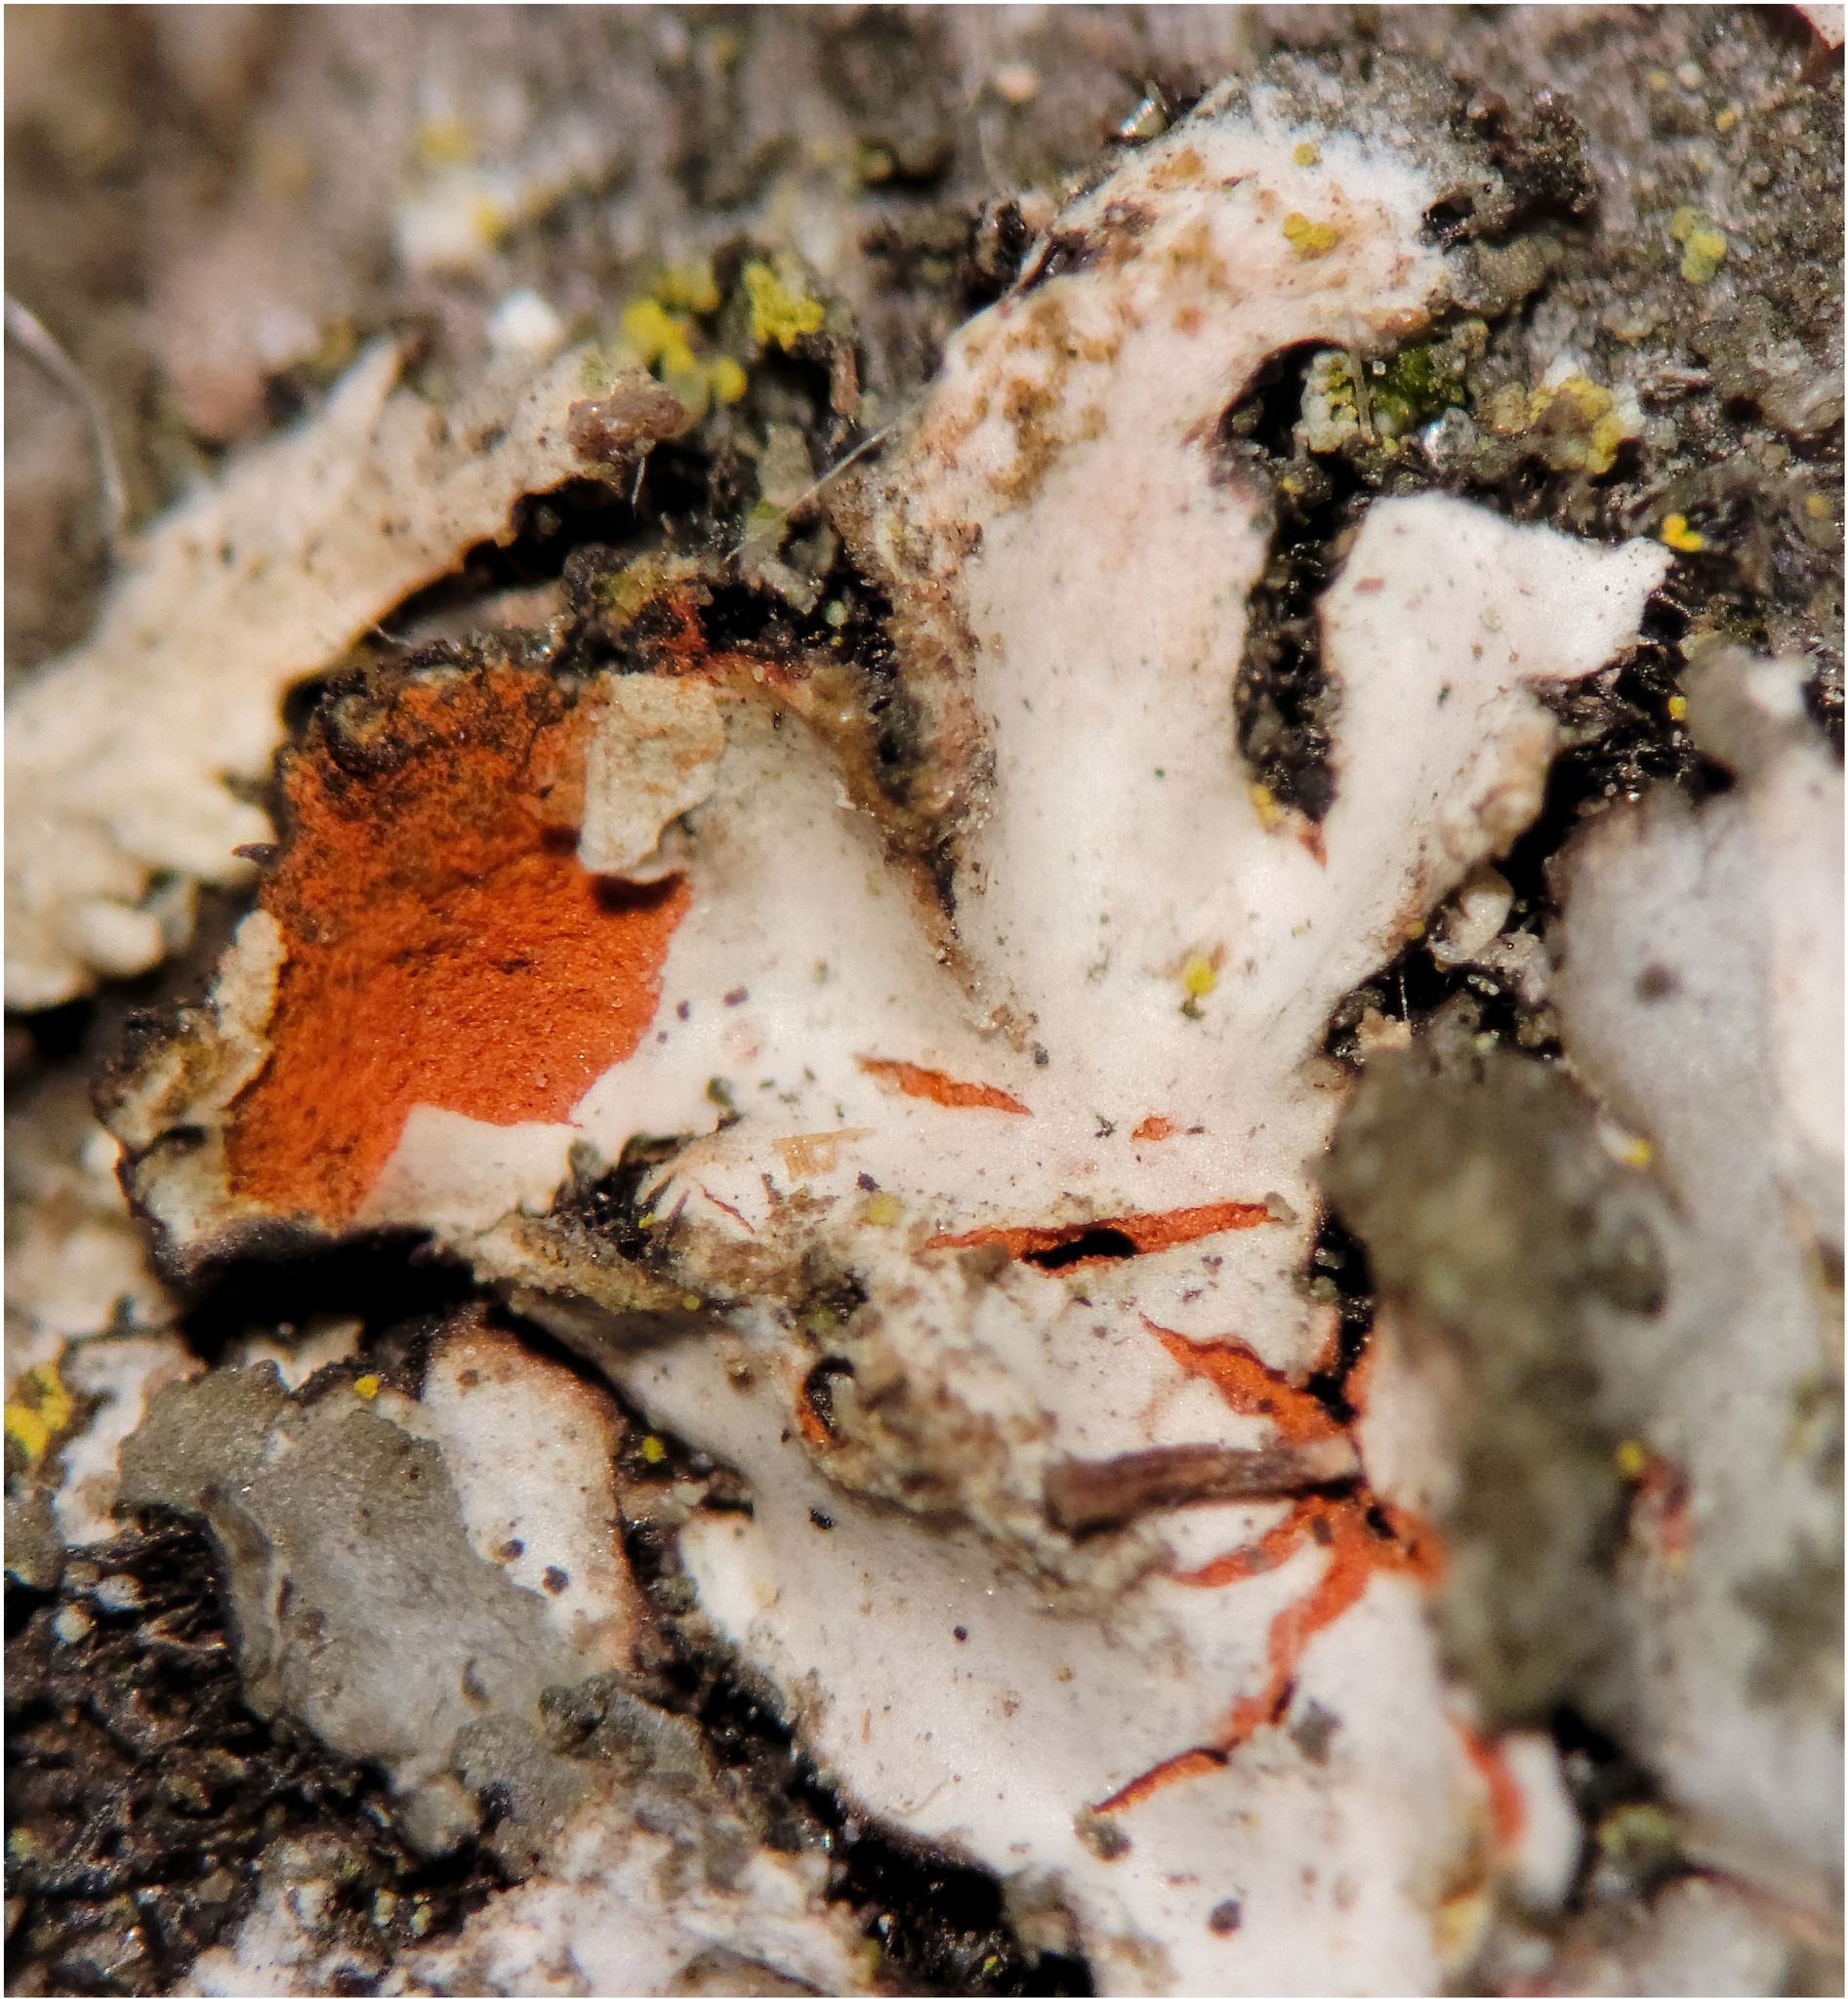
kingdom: Fungi
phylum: Ascomycota
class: Lecanoromycetes
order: Caliciales
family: Physciaceae
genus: Phaeophyscia
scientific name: Phaeophyscia rubropulchra
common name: Orange-cored shadow lichen
